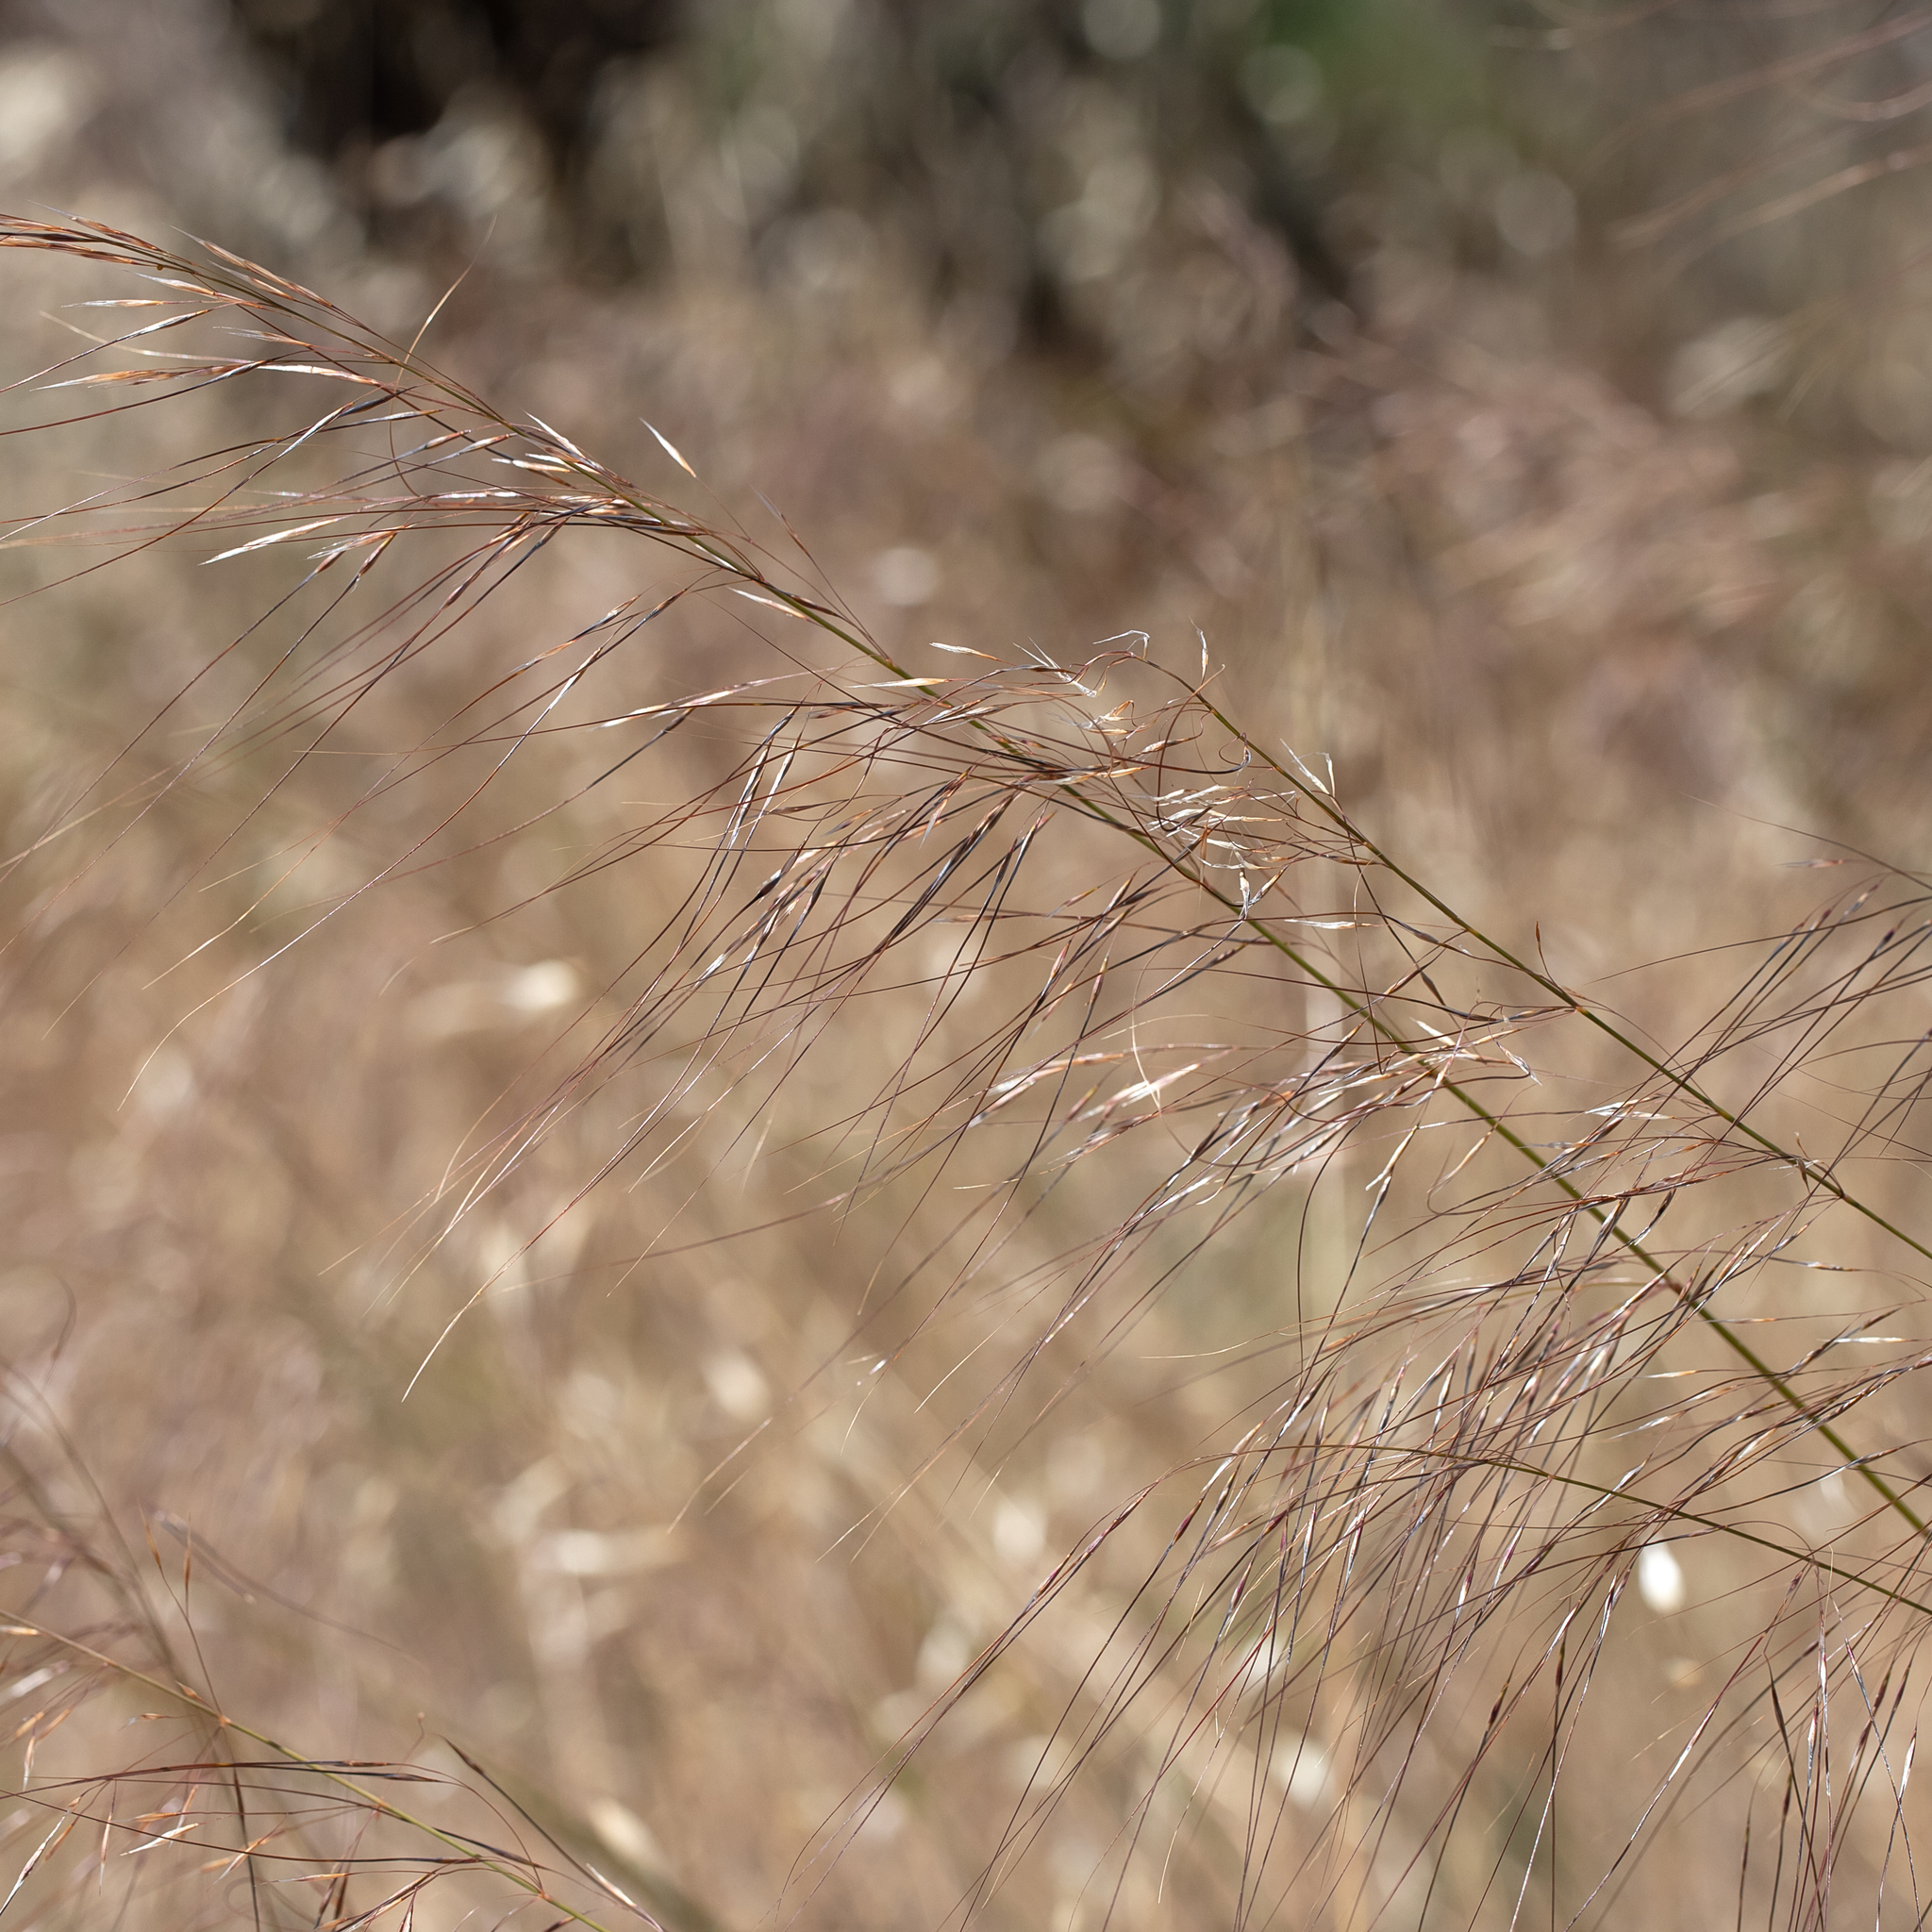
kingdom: Plantae
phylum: Tracheophyta
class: Liliopsida
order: Poales
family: Poaceae
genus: Austrostipa
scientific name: Austrostipa nodosa
